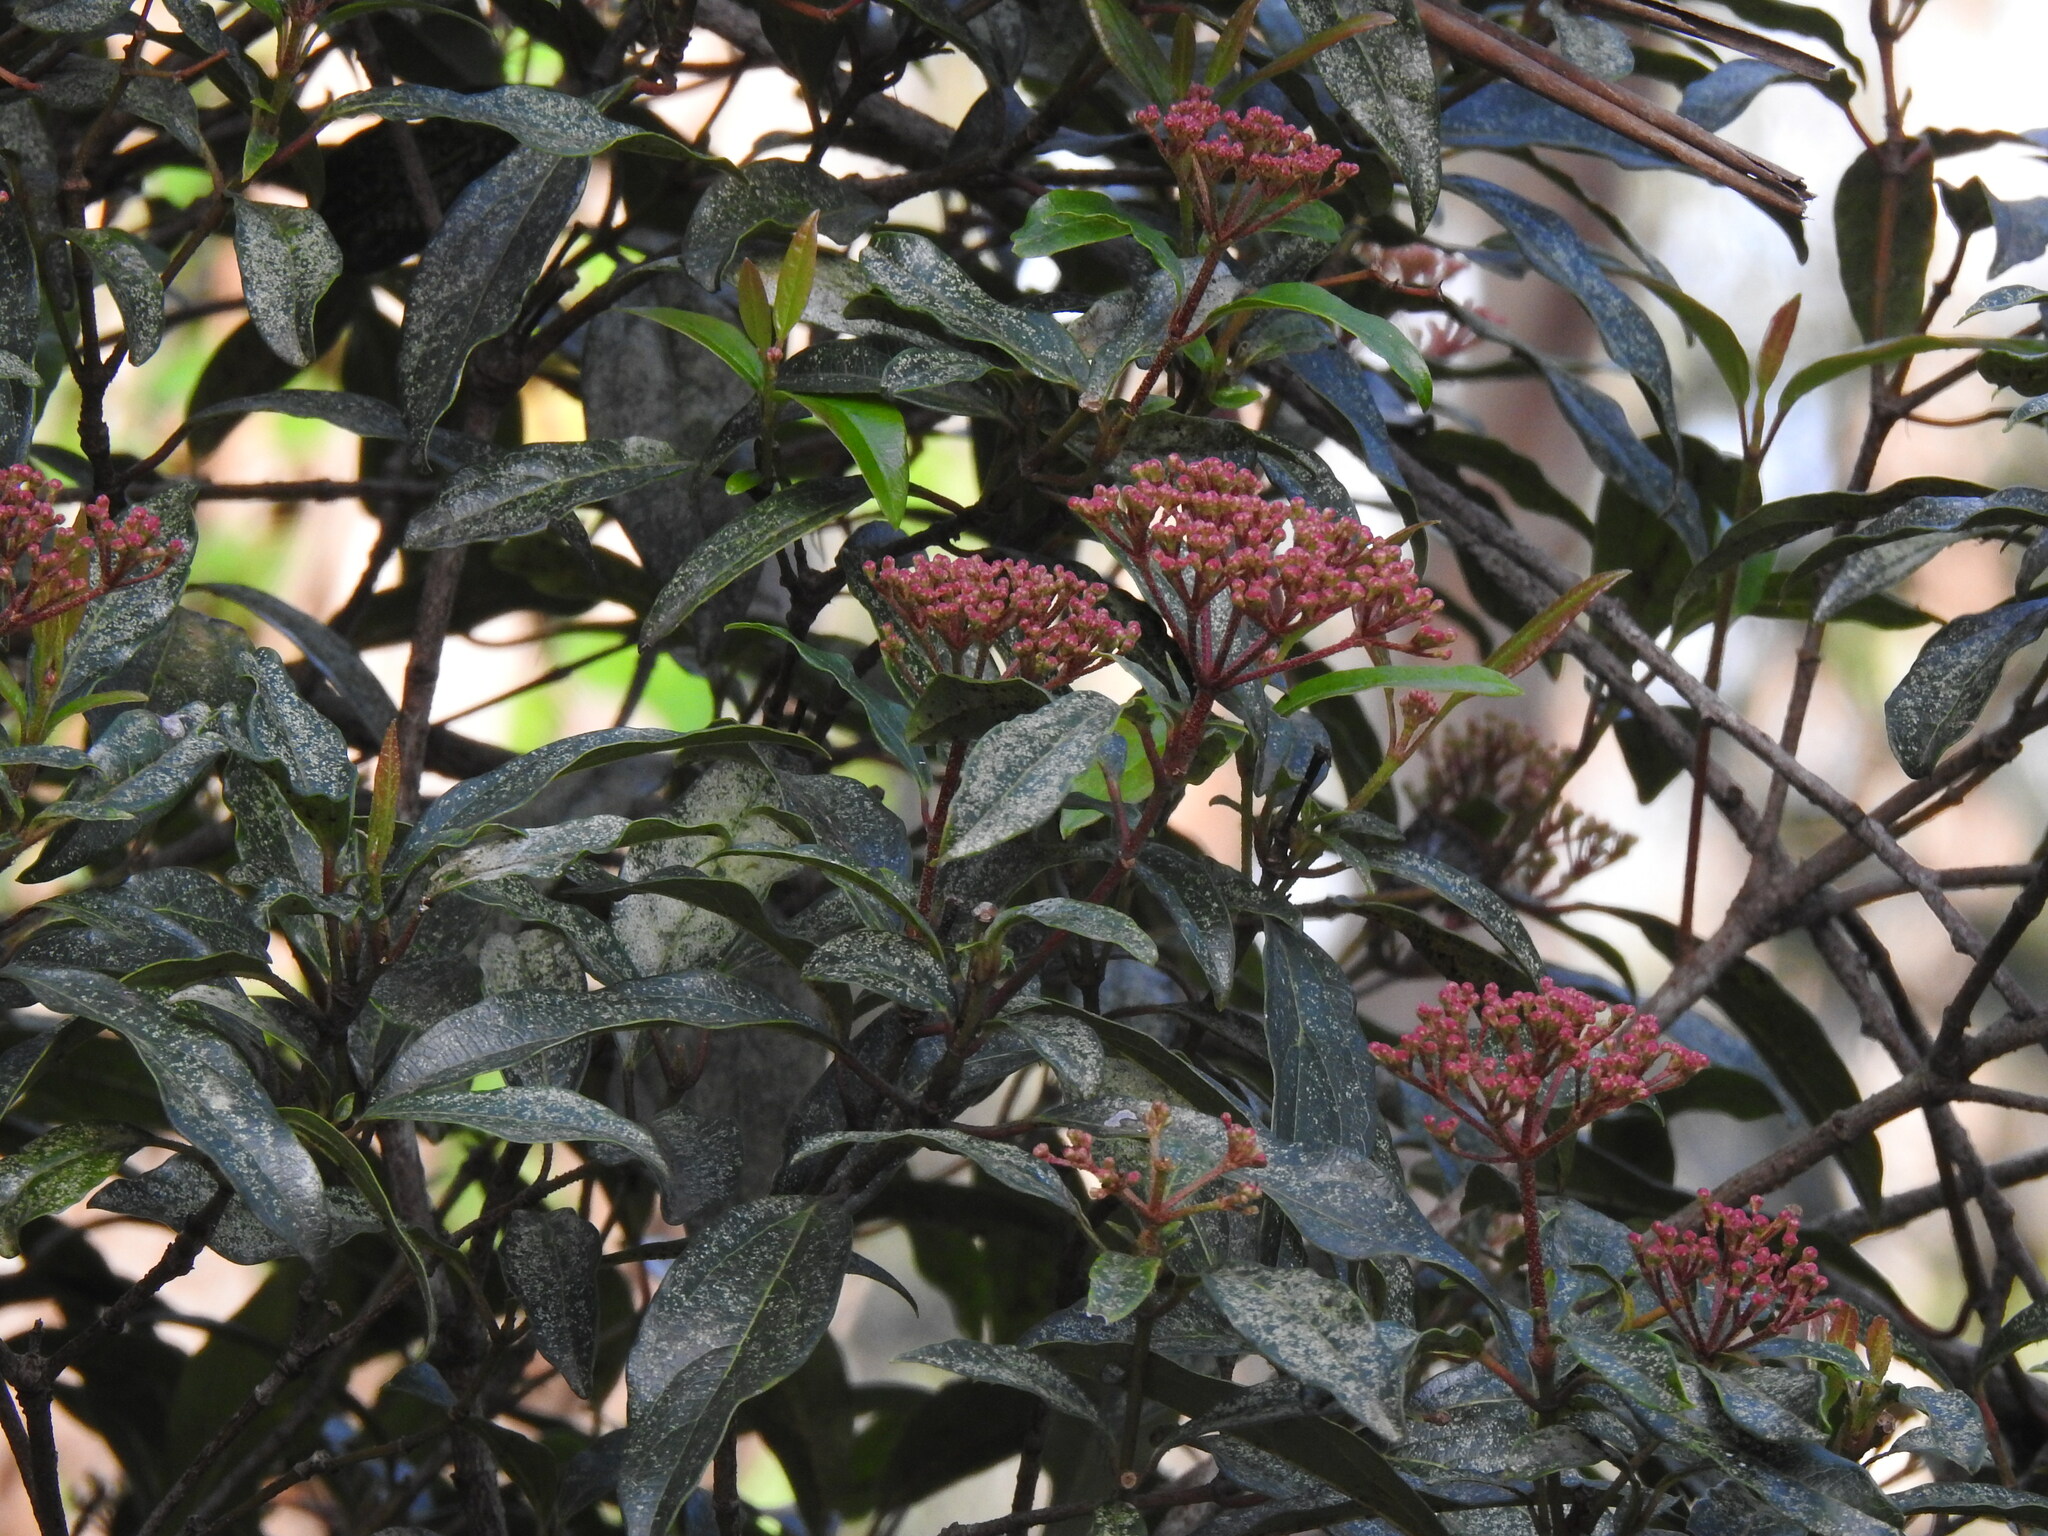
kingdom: Plantae
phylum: Tracheophyta
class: Magnoliopsida
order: Dipsacales
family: Viburnaceae
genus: Viburnum
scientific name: Viburnum tinus
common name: Laurustinus
